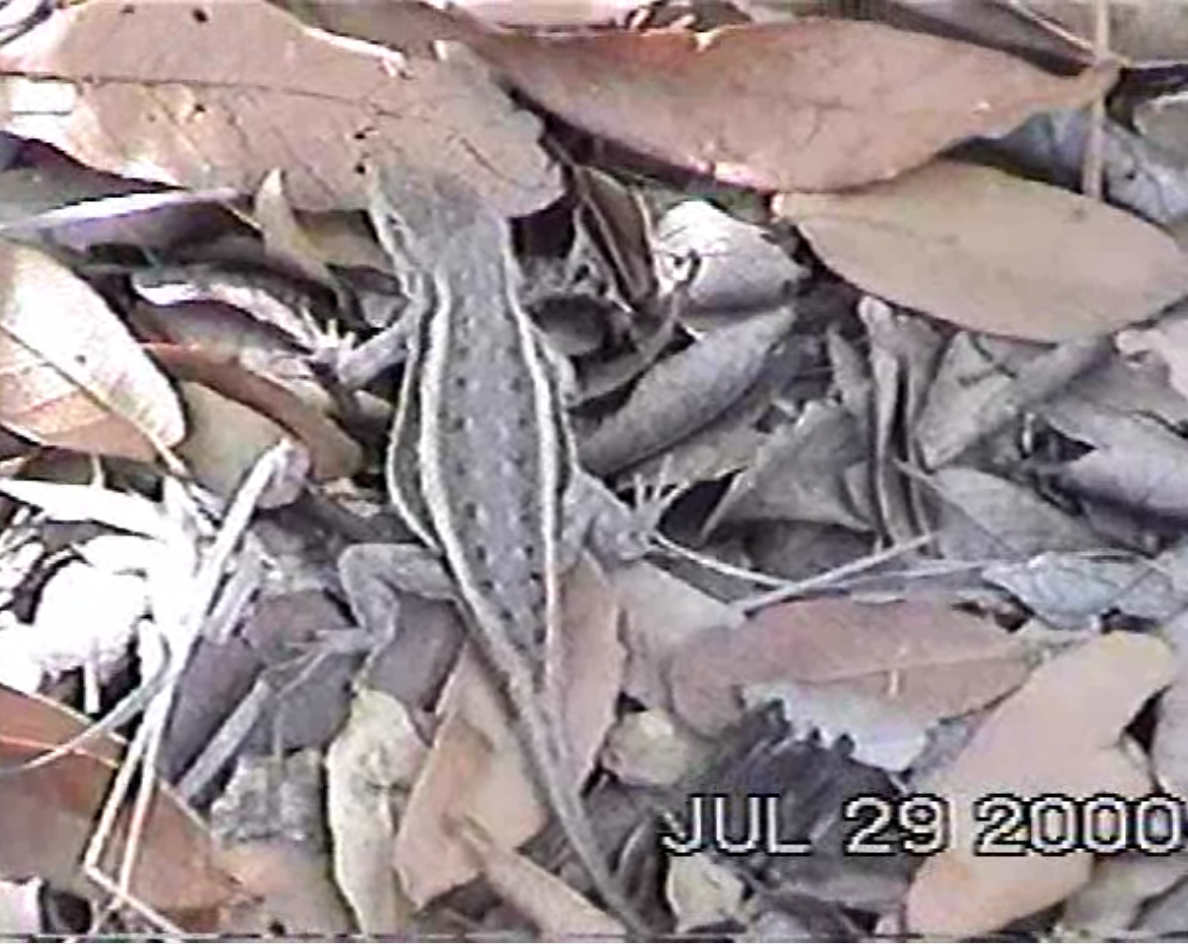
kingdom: Animalia
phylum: Chordata
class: Squamata
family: Phrynosomatidae
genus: Sceloporus
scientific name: Sceloporus virgatus
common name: Striped plateau lizard
